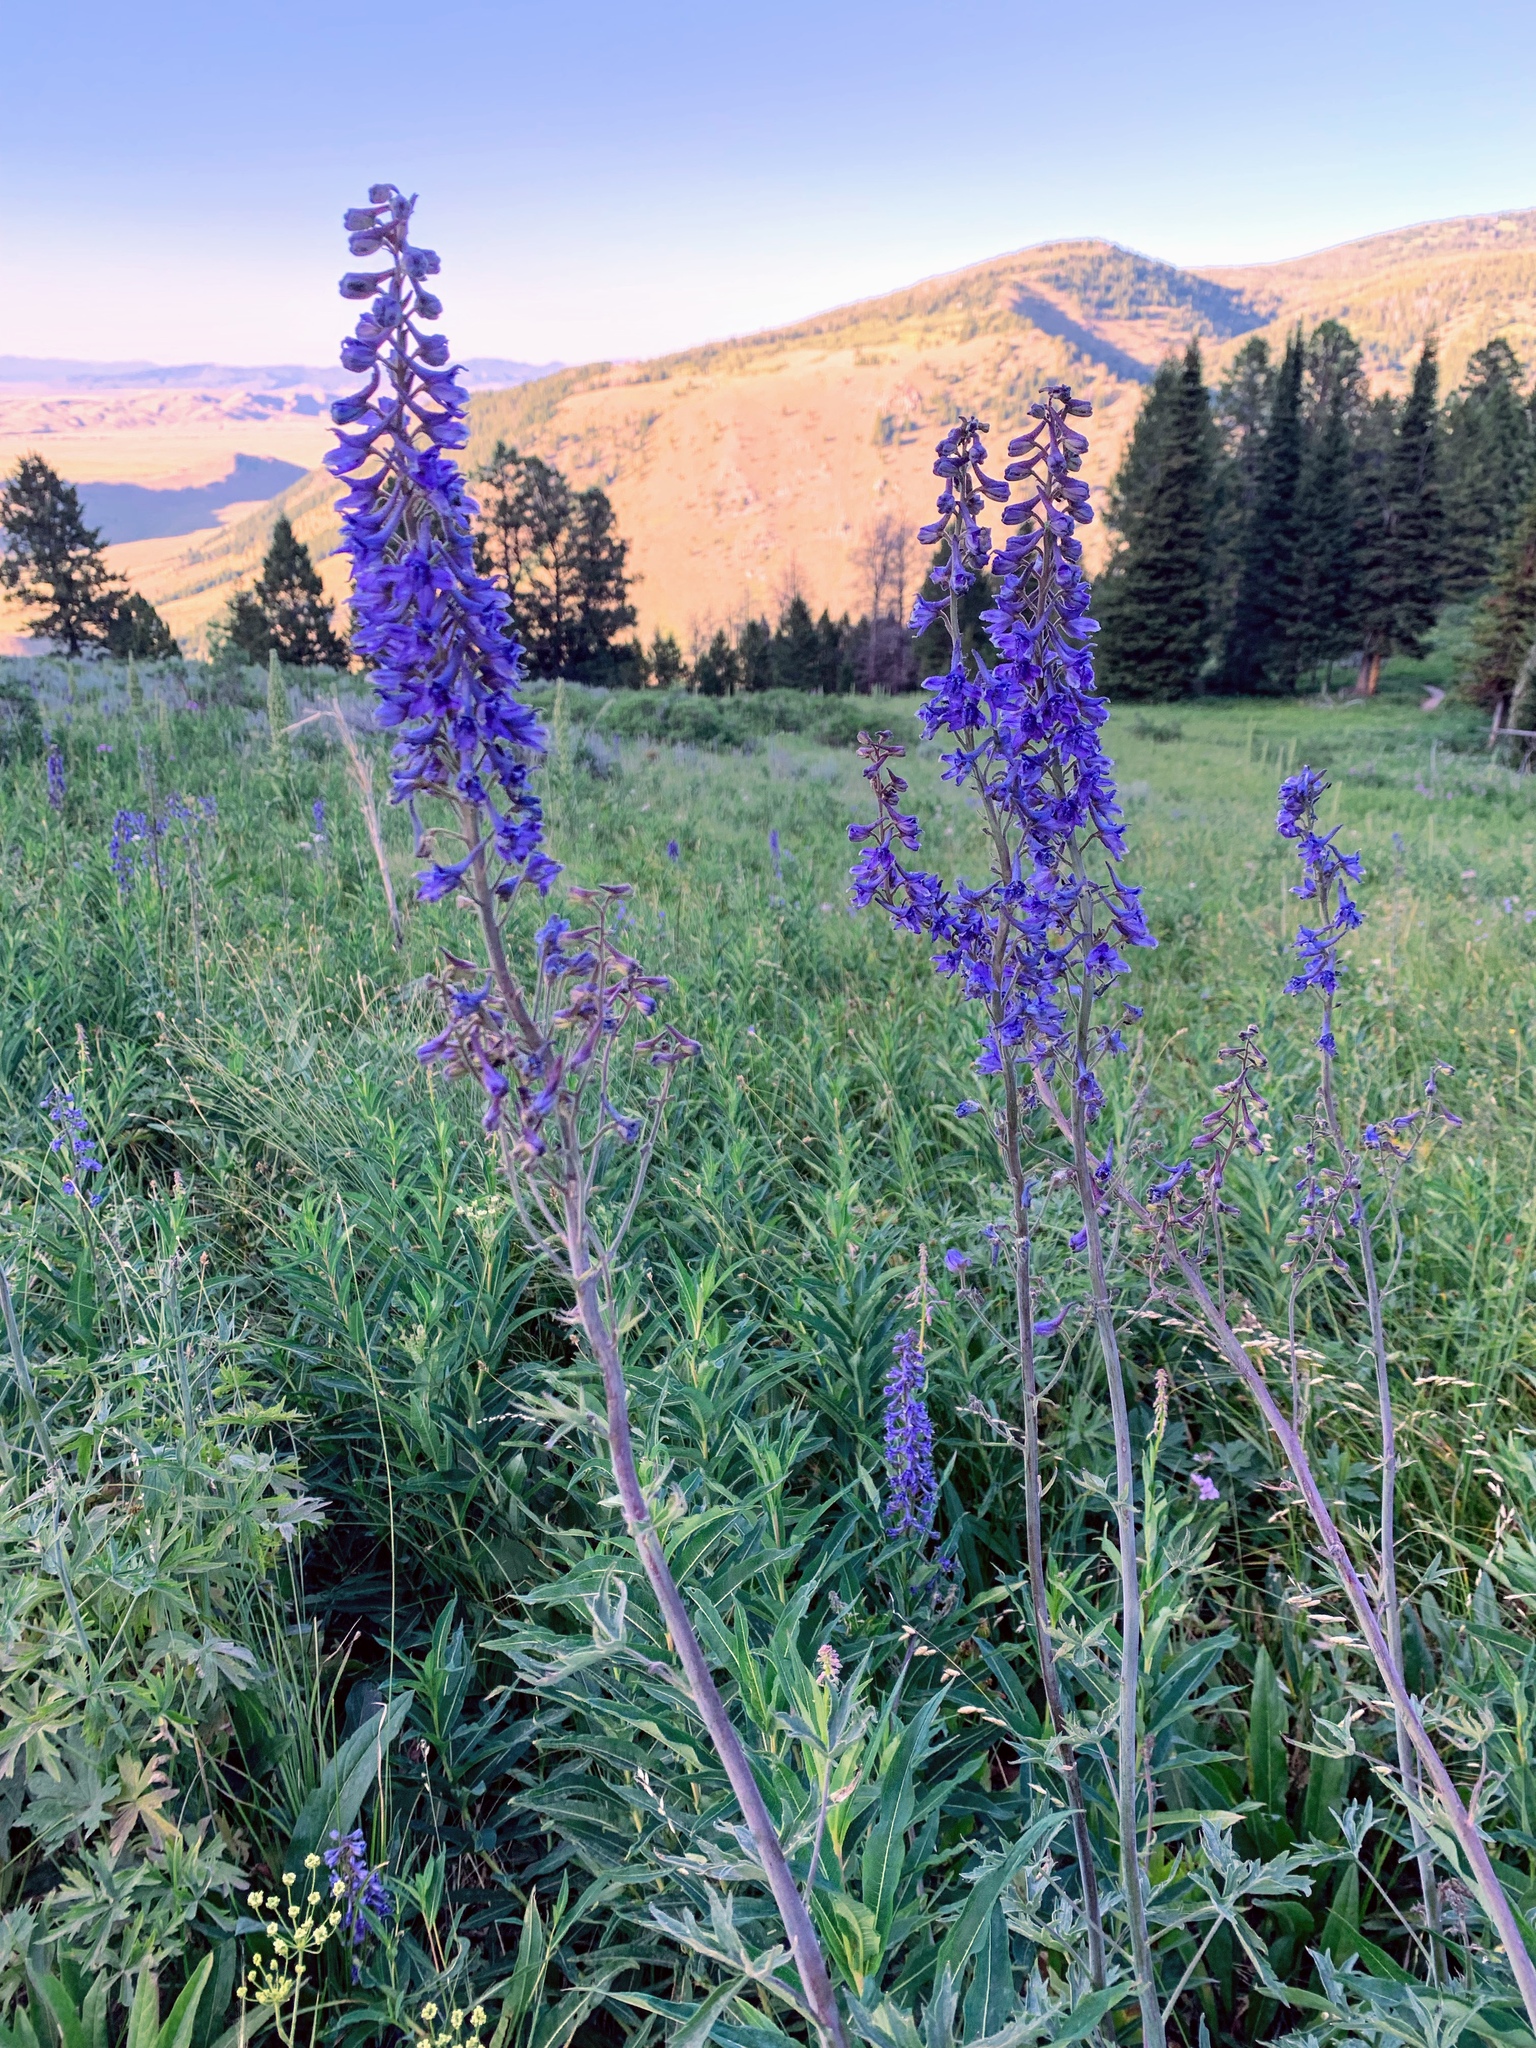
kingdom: Plantae
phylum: Tracheophyta
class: Magnoliopsida
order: Ranunculales
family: Ranunculaceae
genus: Delphinium
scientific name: Delphinium occidentale
